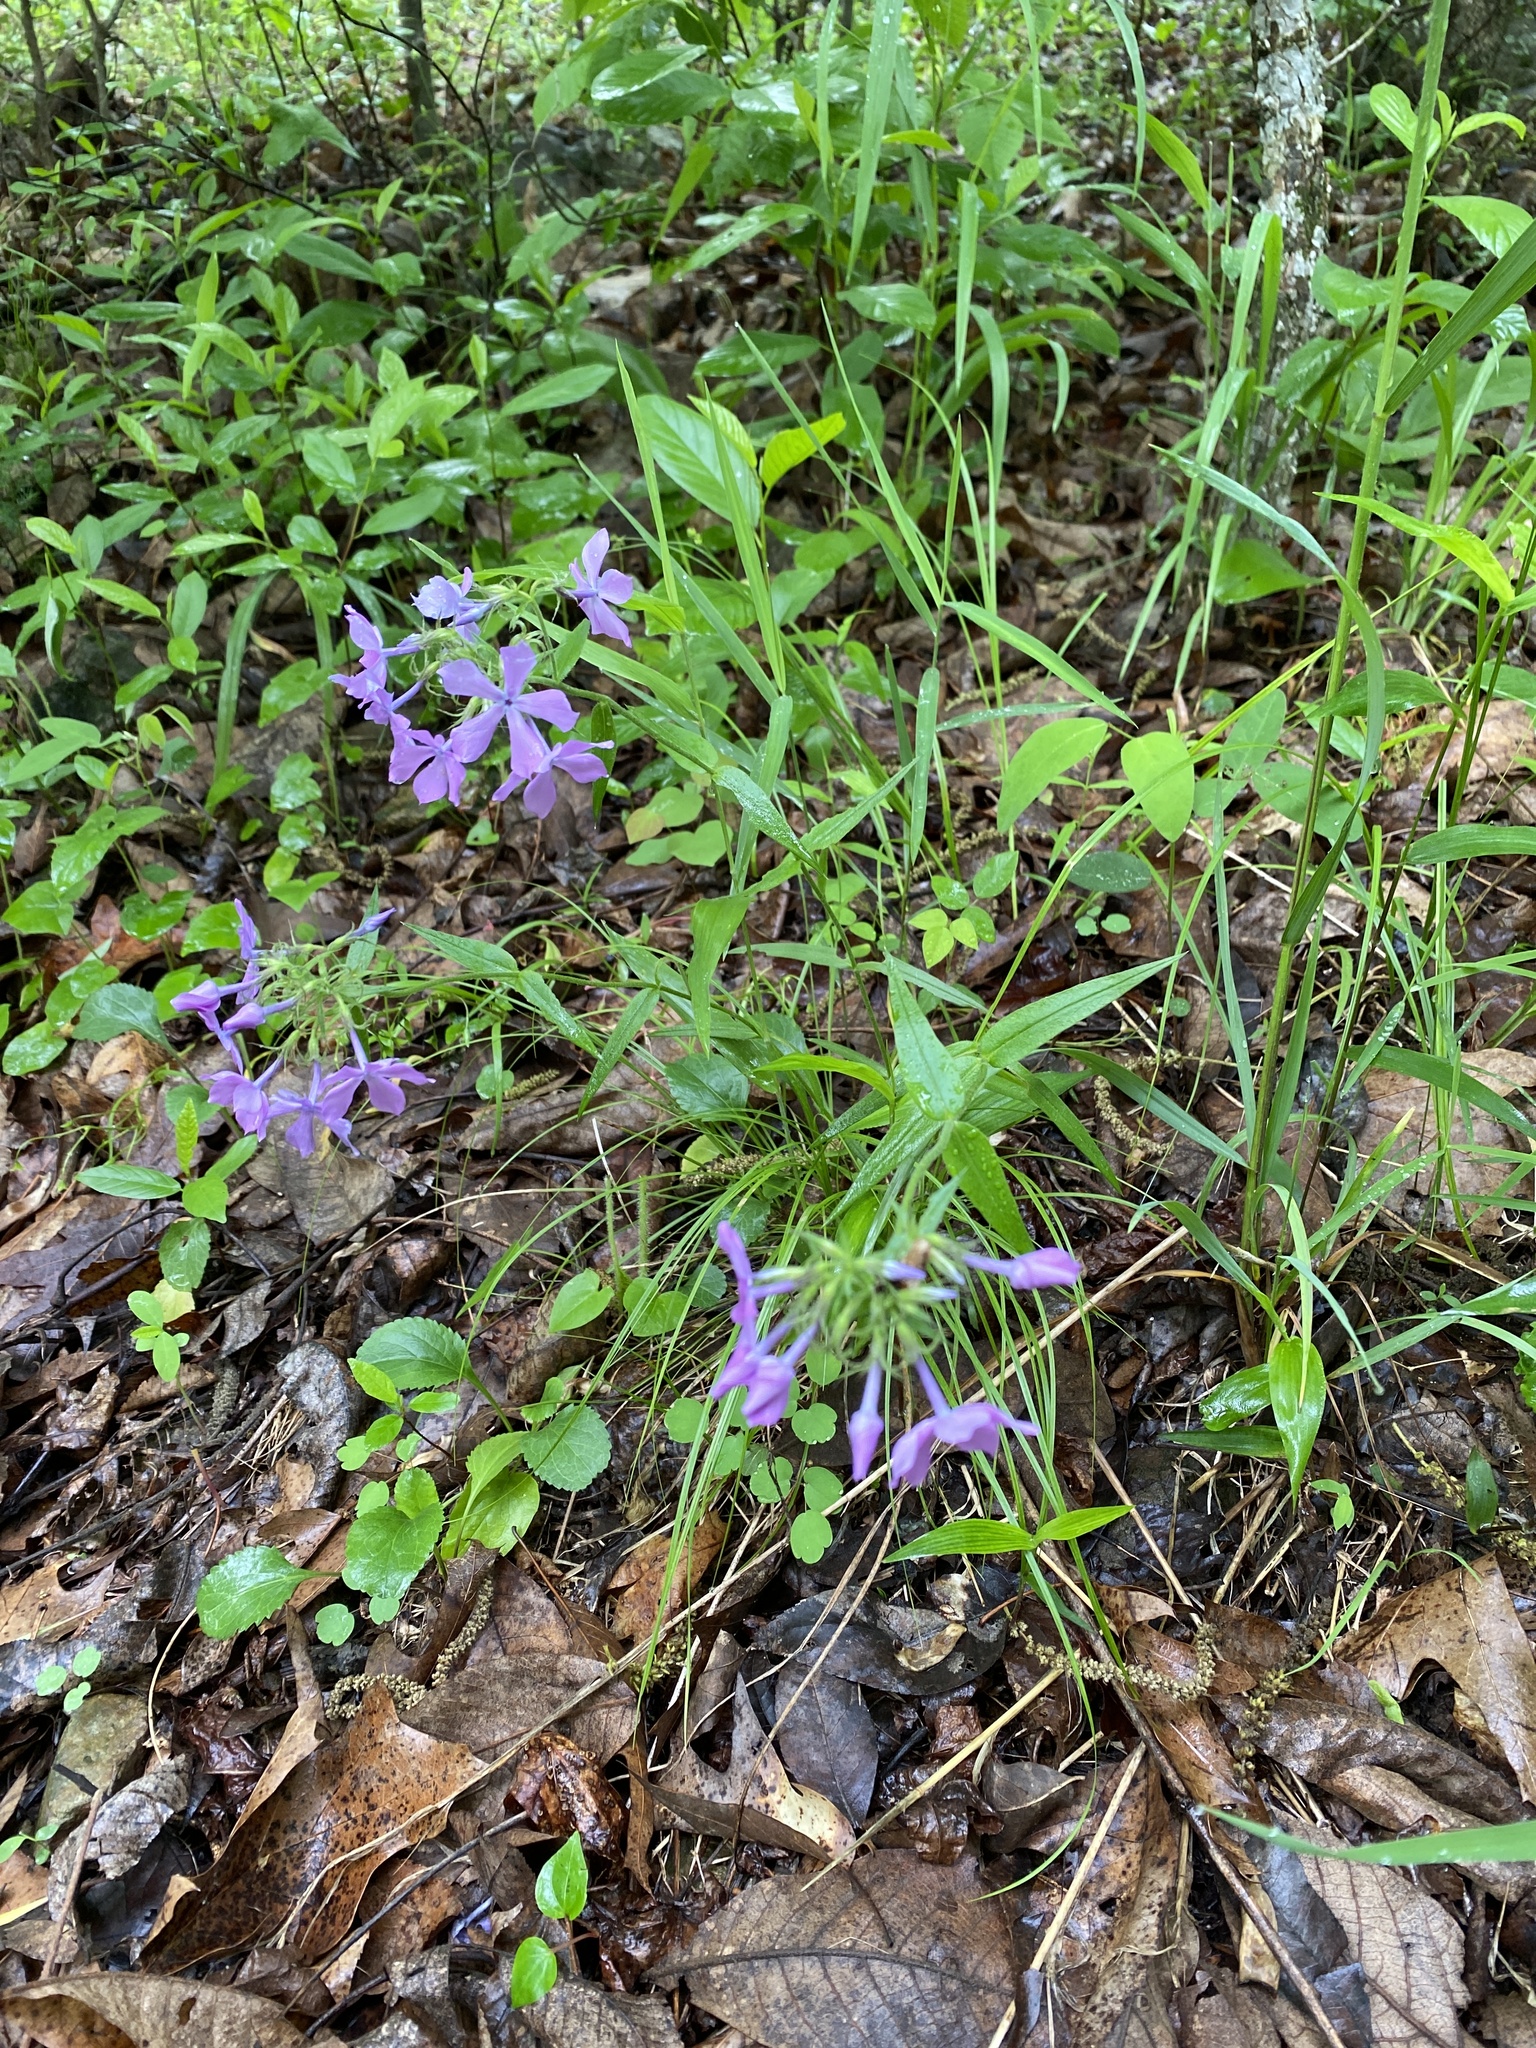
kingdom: Plantae
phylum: Tracheophyta
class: Magnoliopsida
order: Ericales
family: Polemoniaceae
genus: Phlox
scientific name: Phlox pilosa
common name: Prairie phlox
